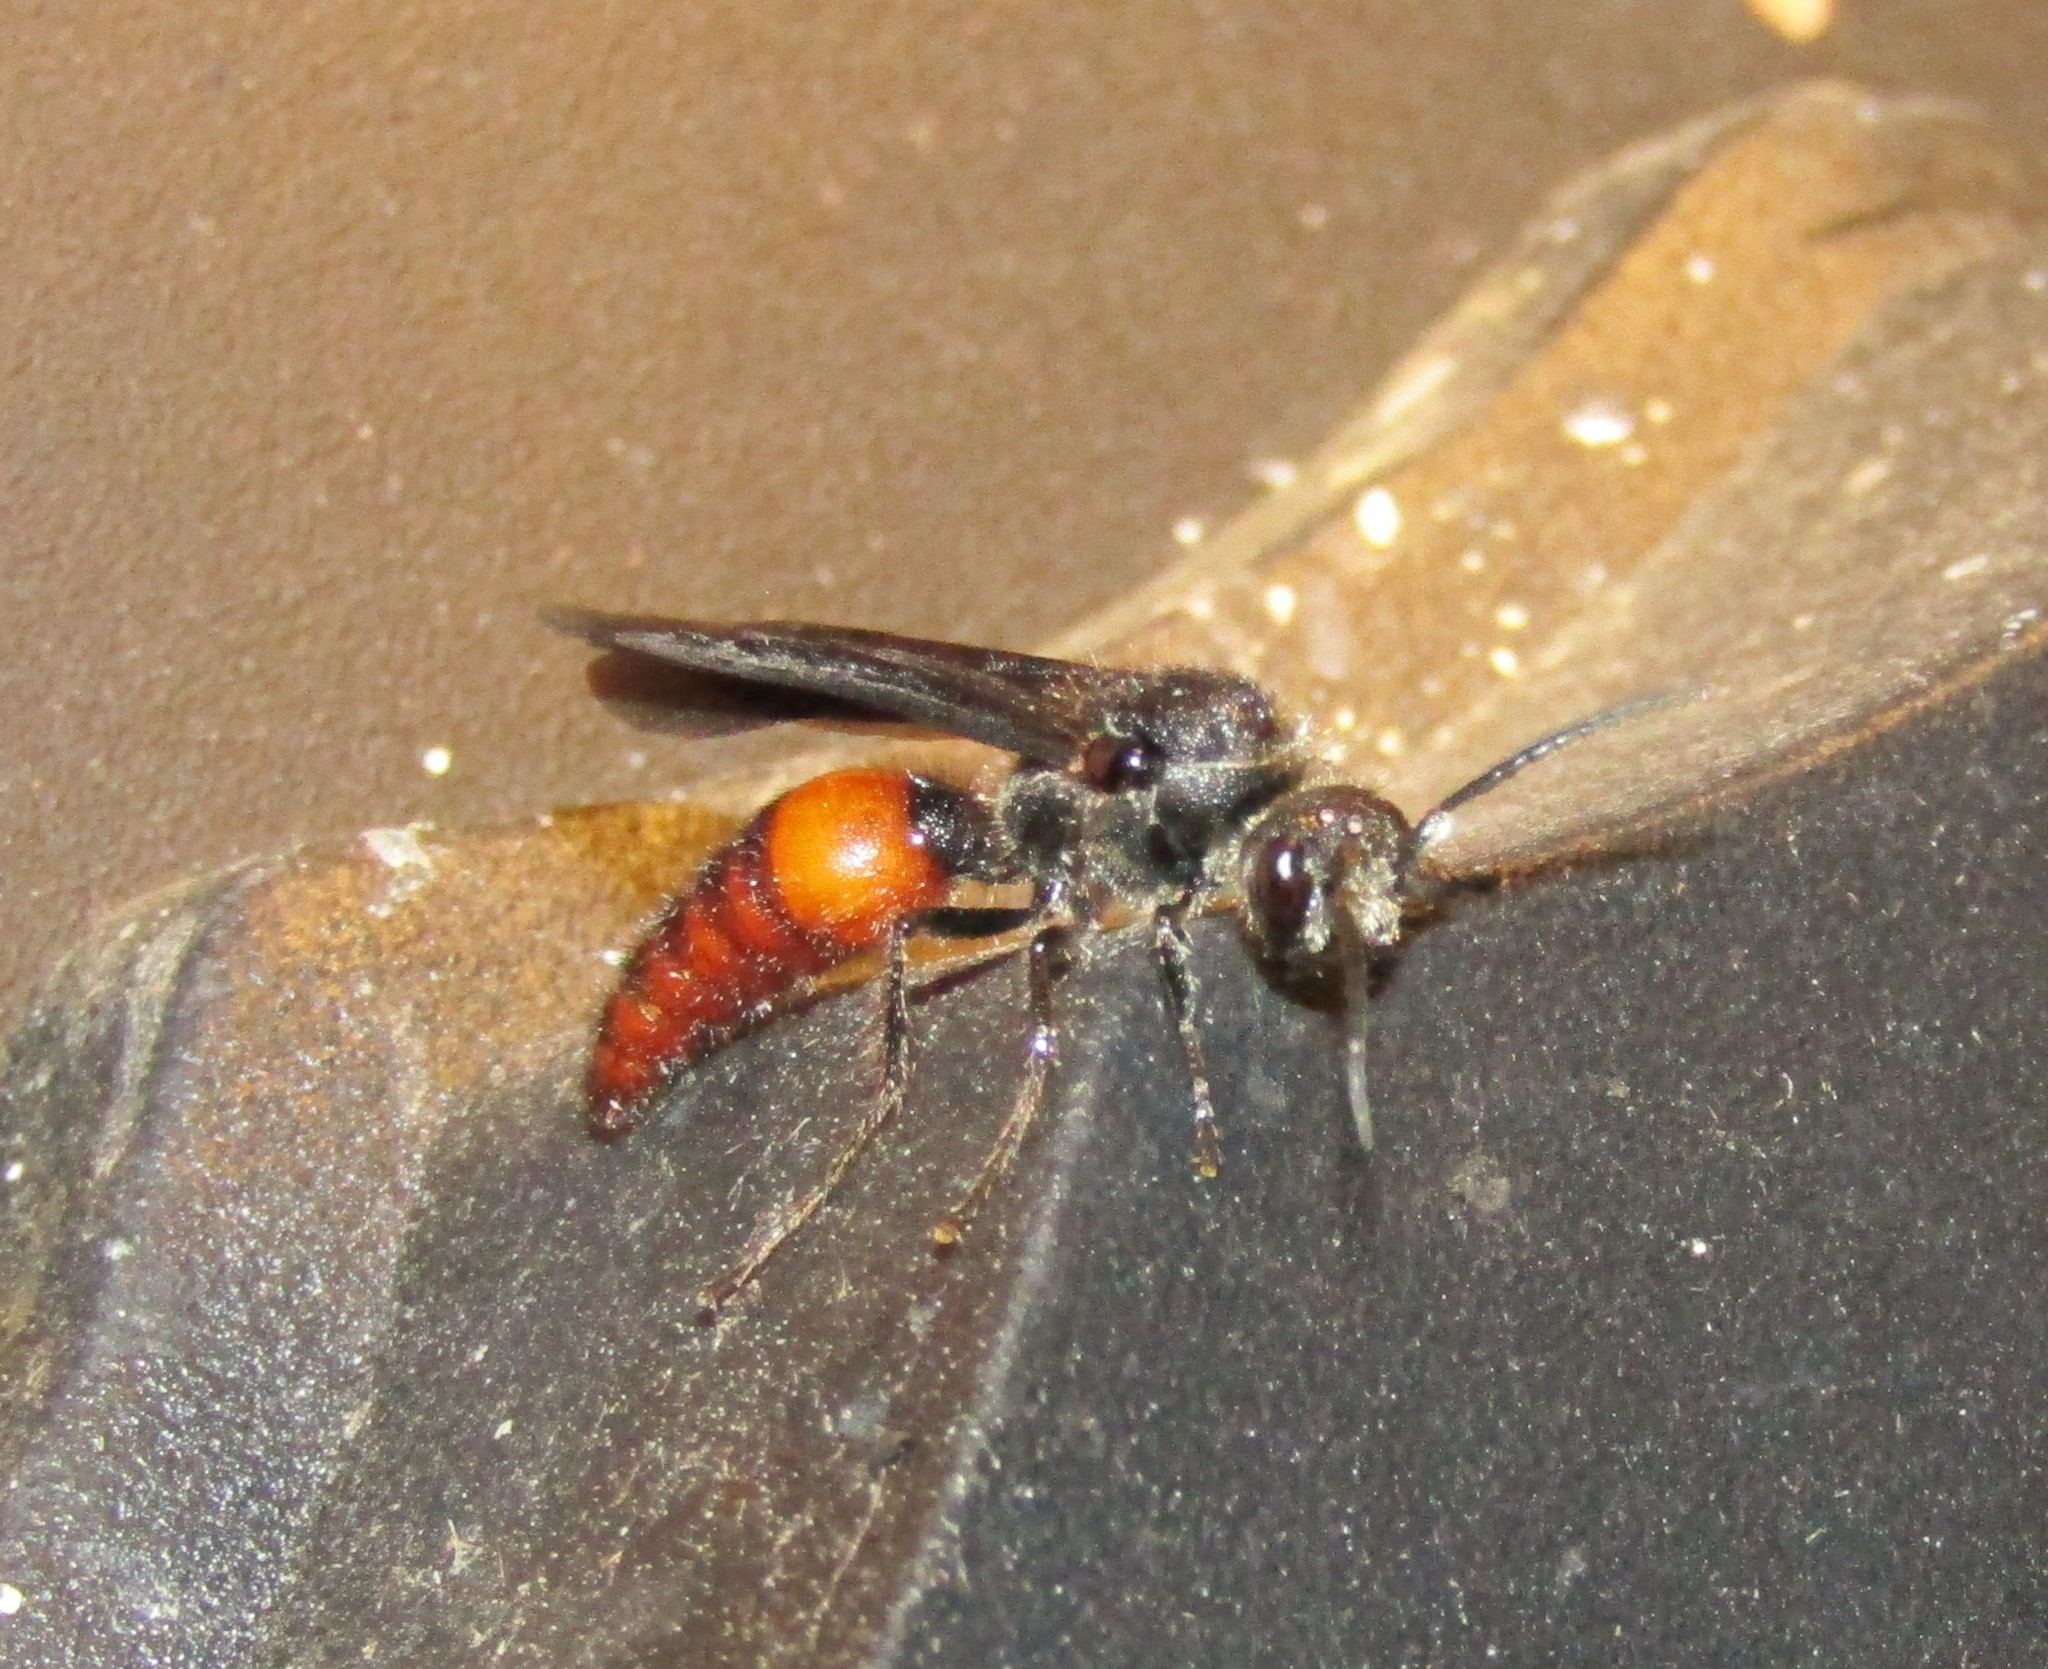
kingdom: Animalia
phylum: Arthropoda
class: Insecta
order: Hymenoptera
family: Mutillidae
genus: Timulla
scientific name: Timulla
